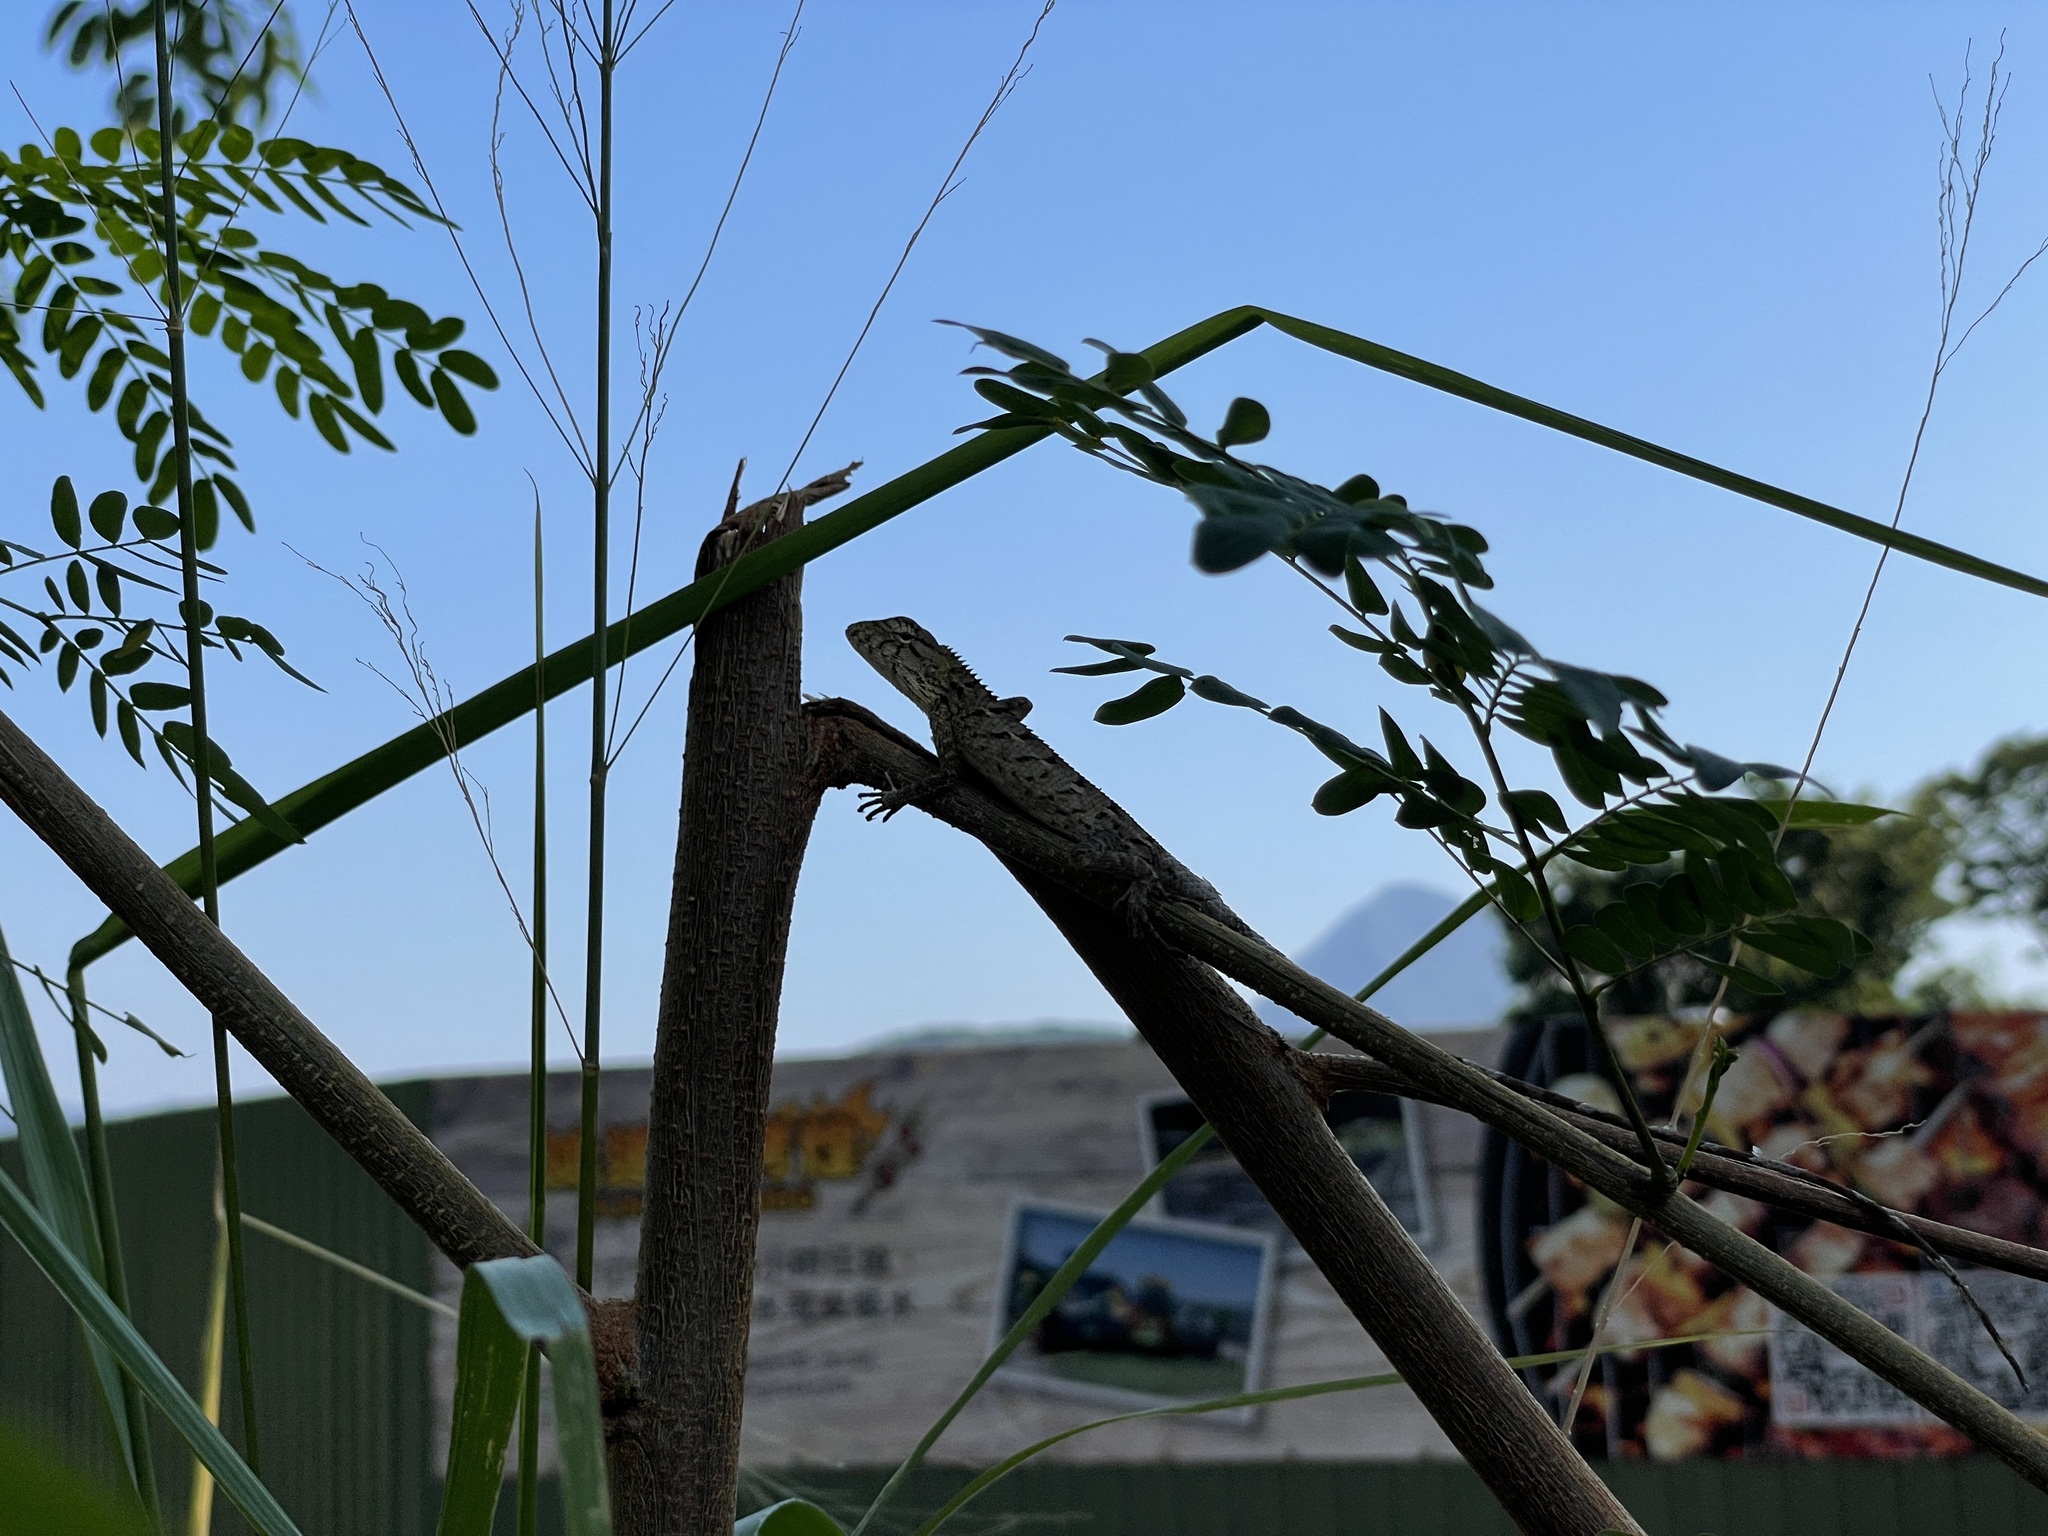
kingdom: Animalia
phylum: Chordata
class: Squamata
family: Agamidae
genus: Calotes
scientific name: Calotes versicolor
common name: Oriental garden lizard
